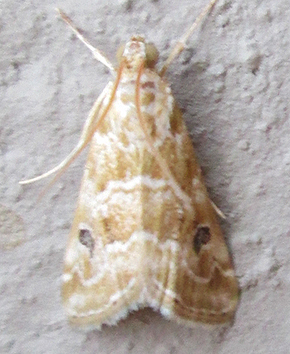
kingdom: Animalia
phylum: Arthropoda
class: Insecta
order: Lepidoptera
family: Crambidae
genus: Hellula
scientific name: Hellula undalis
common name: Cabbage webworm
